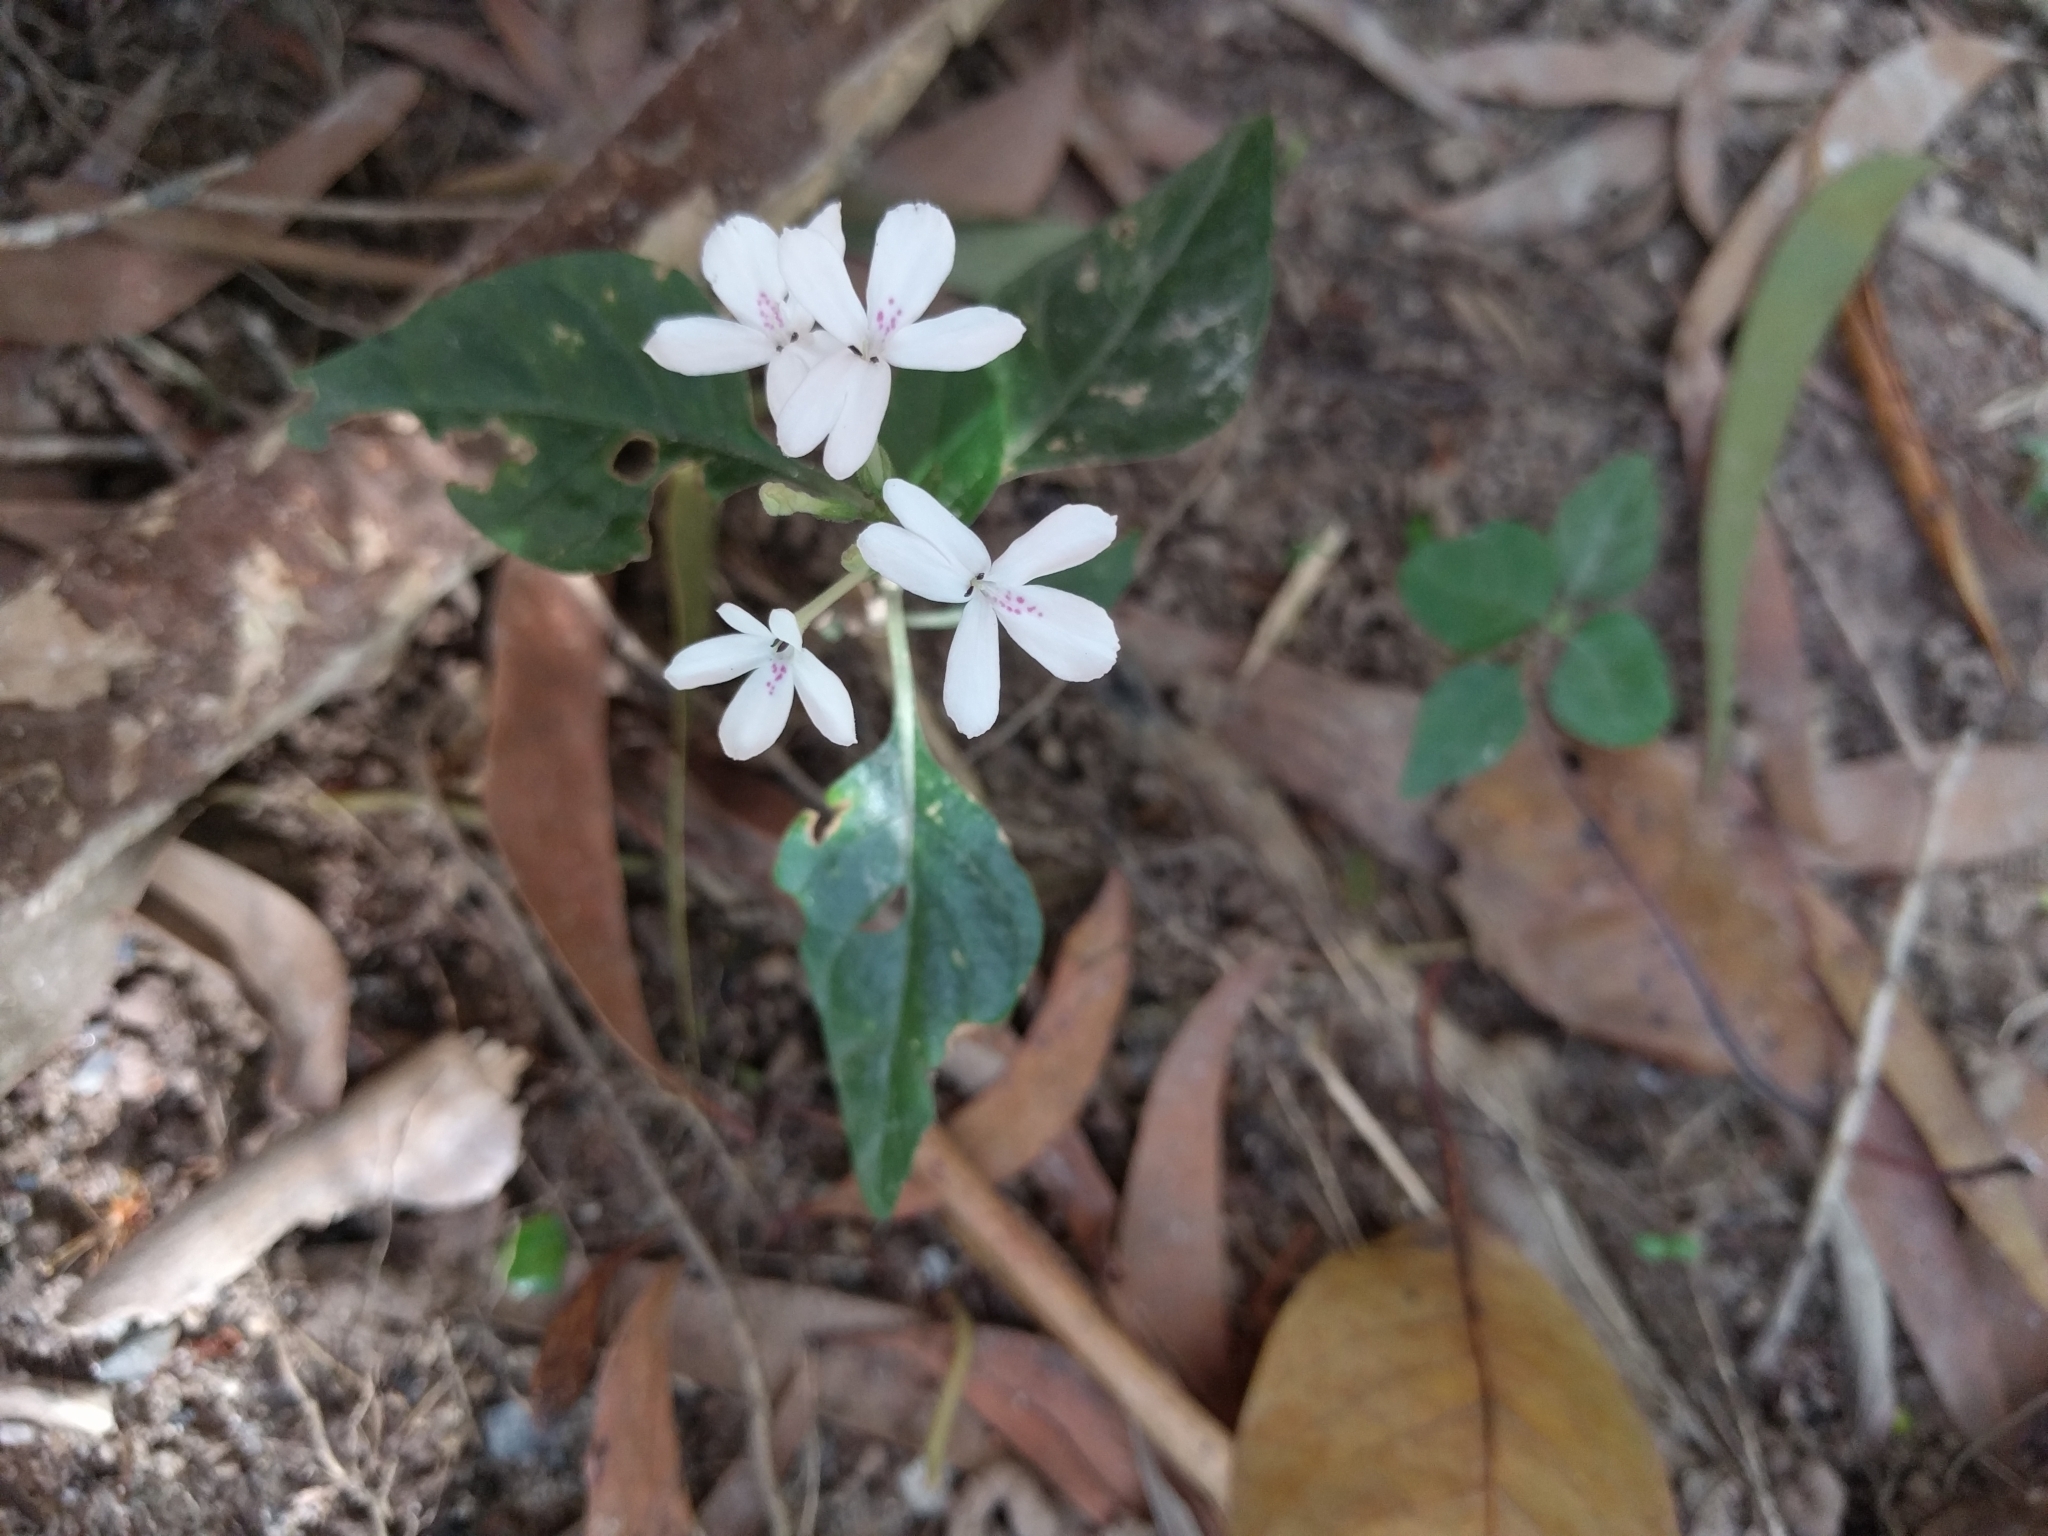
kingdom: Plantae
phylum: Tracheophyta
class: Magnoliopsida
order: Lamiales
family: Acanthaceae
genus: Pseuderanthemum
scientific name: Pseuderanthemum variabile
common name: Night and afternoon
